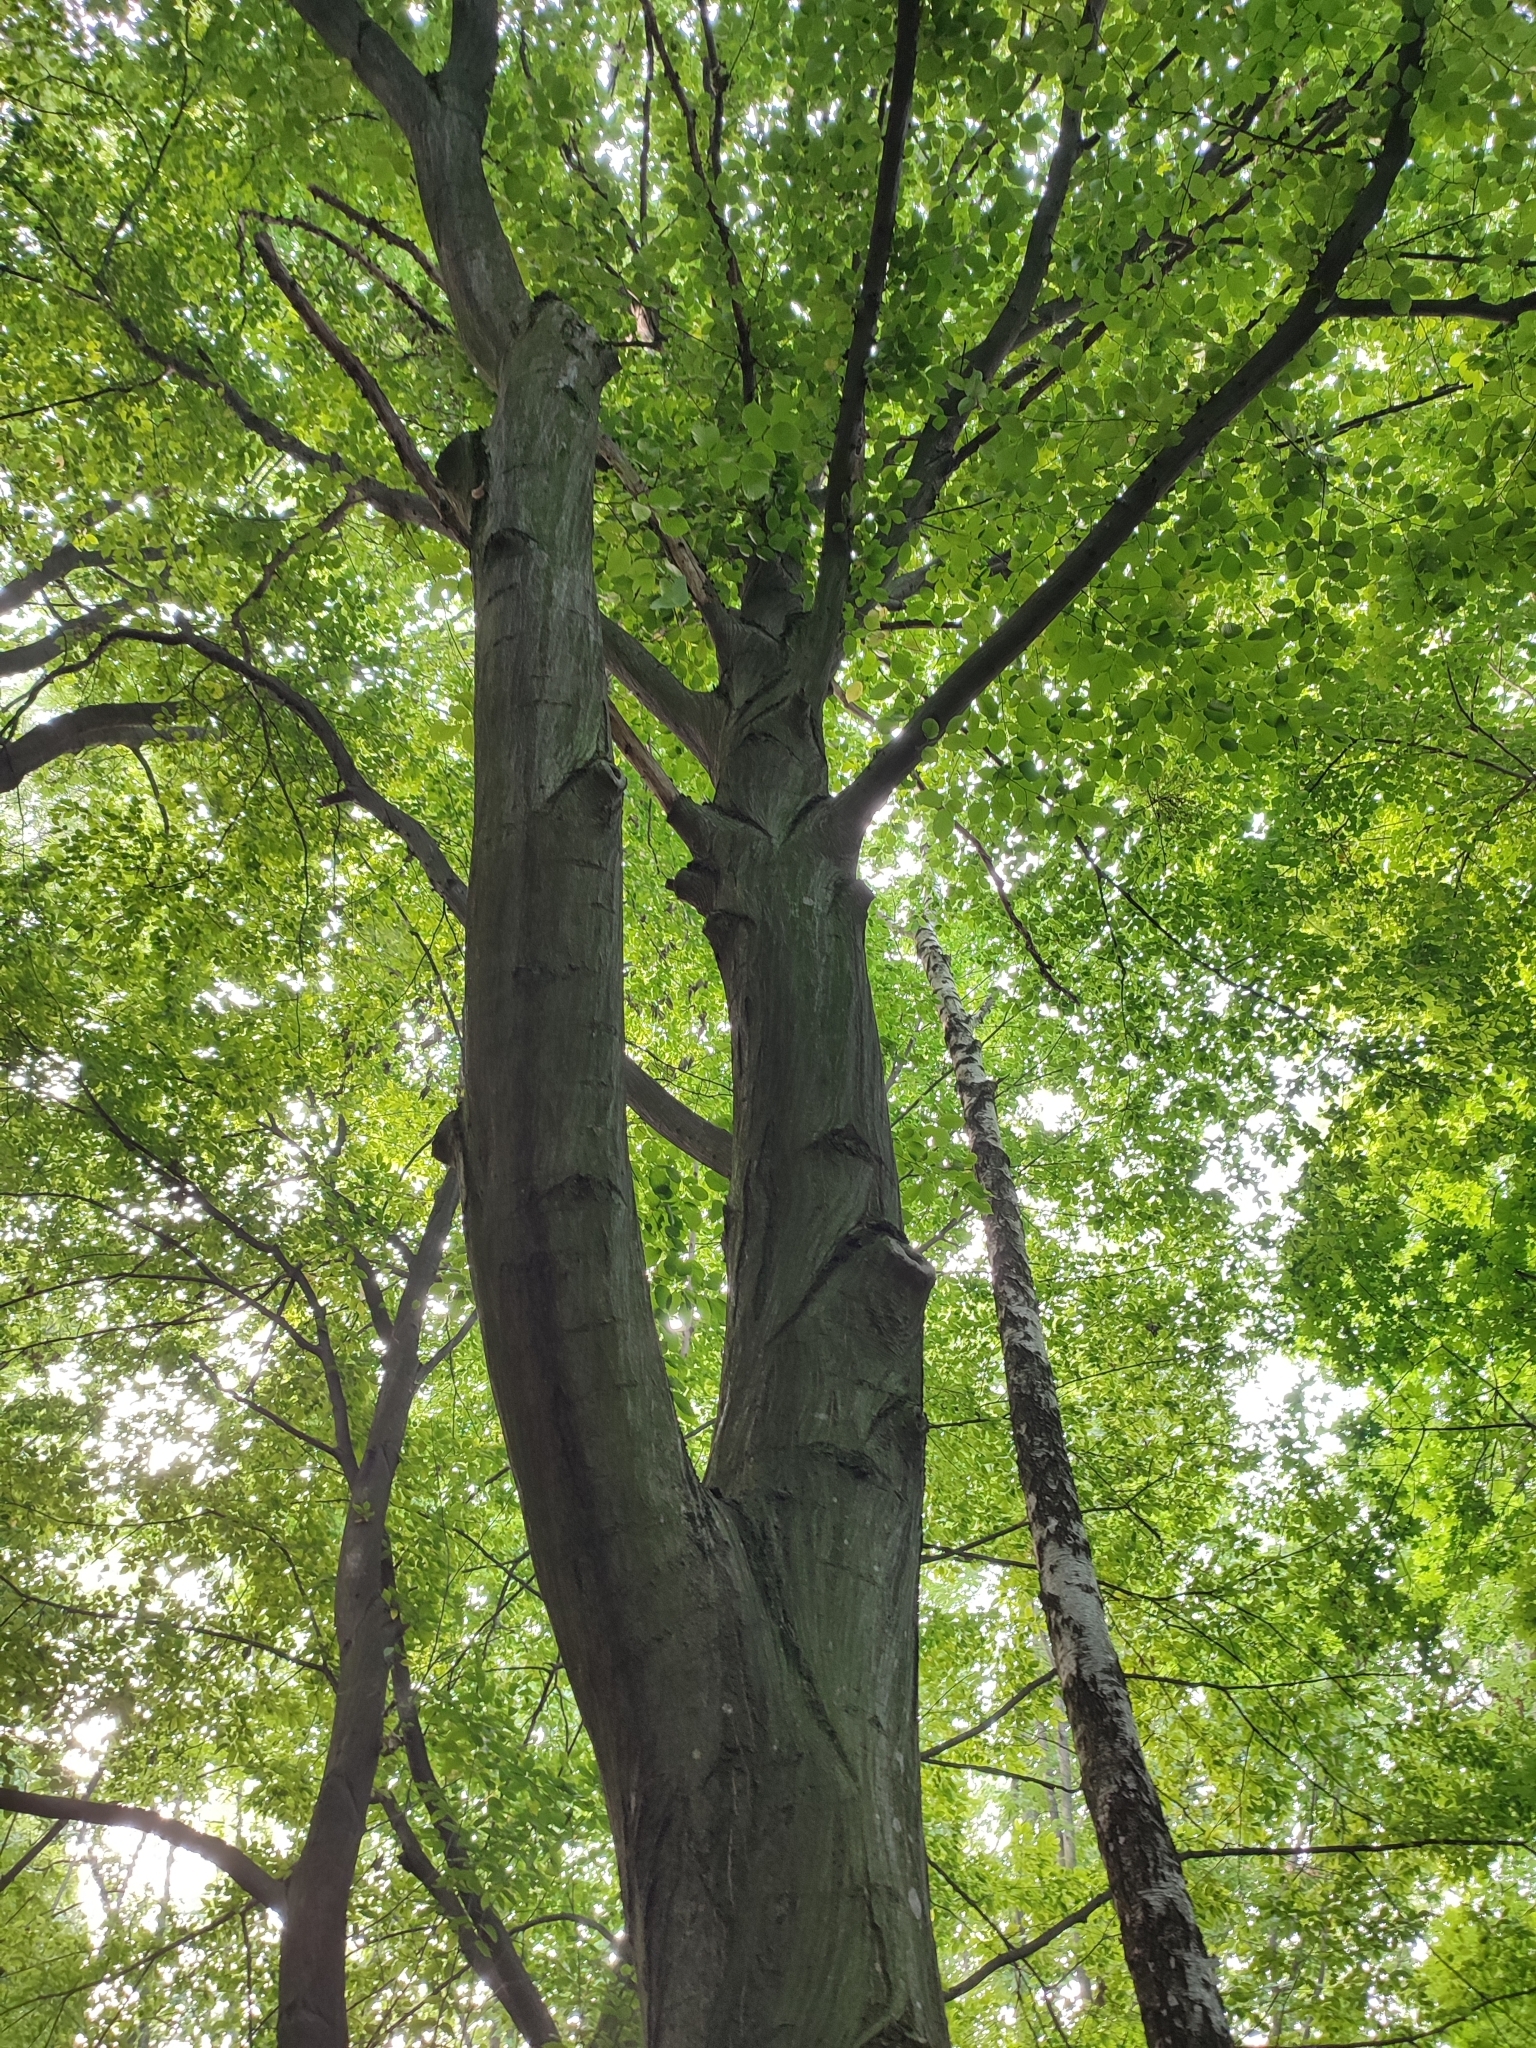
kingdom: Plantae
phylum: Tracheophyta
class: Magnoliopsida
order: Fagales
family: Betulaceae
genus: Carpinus
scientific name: Carpinus betulus
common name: Hornbeam
